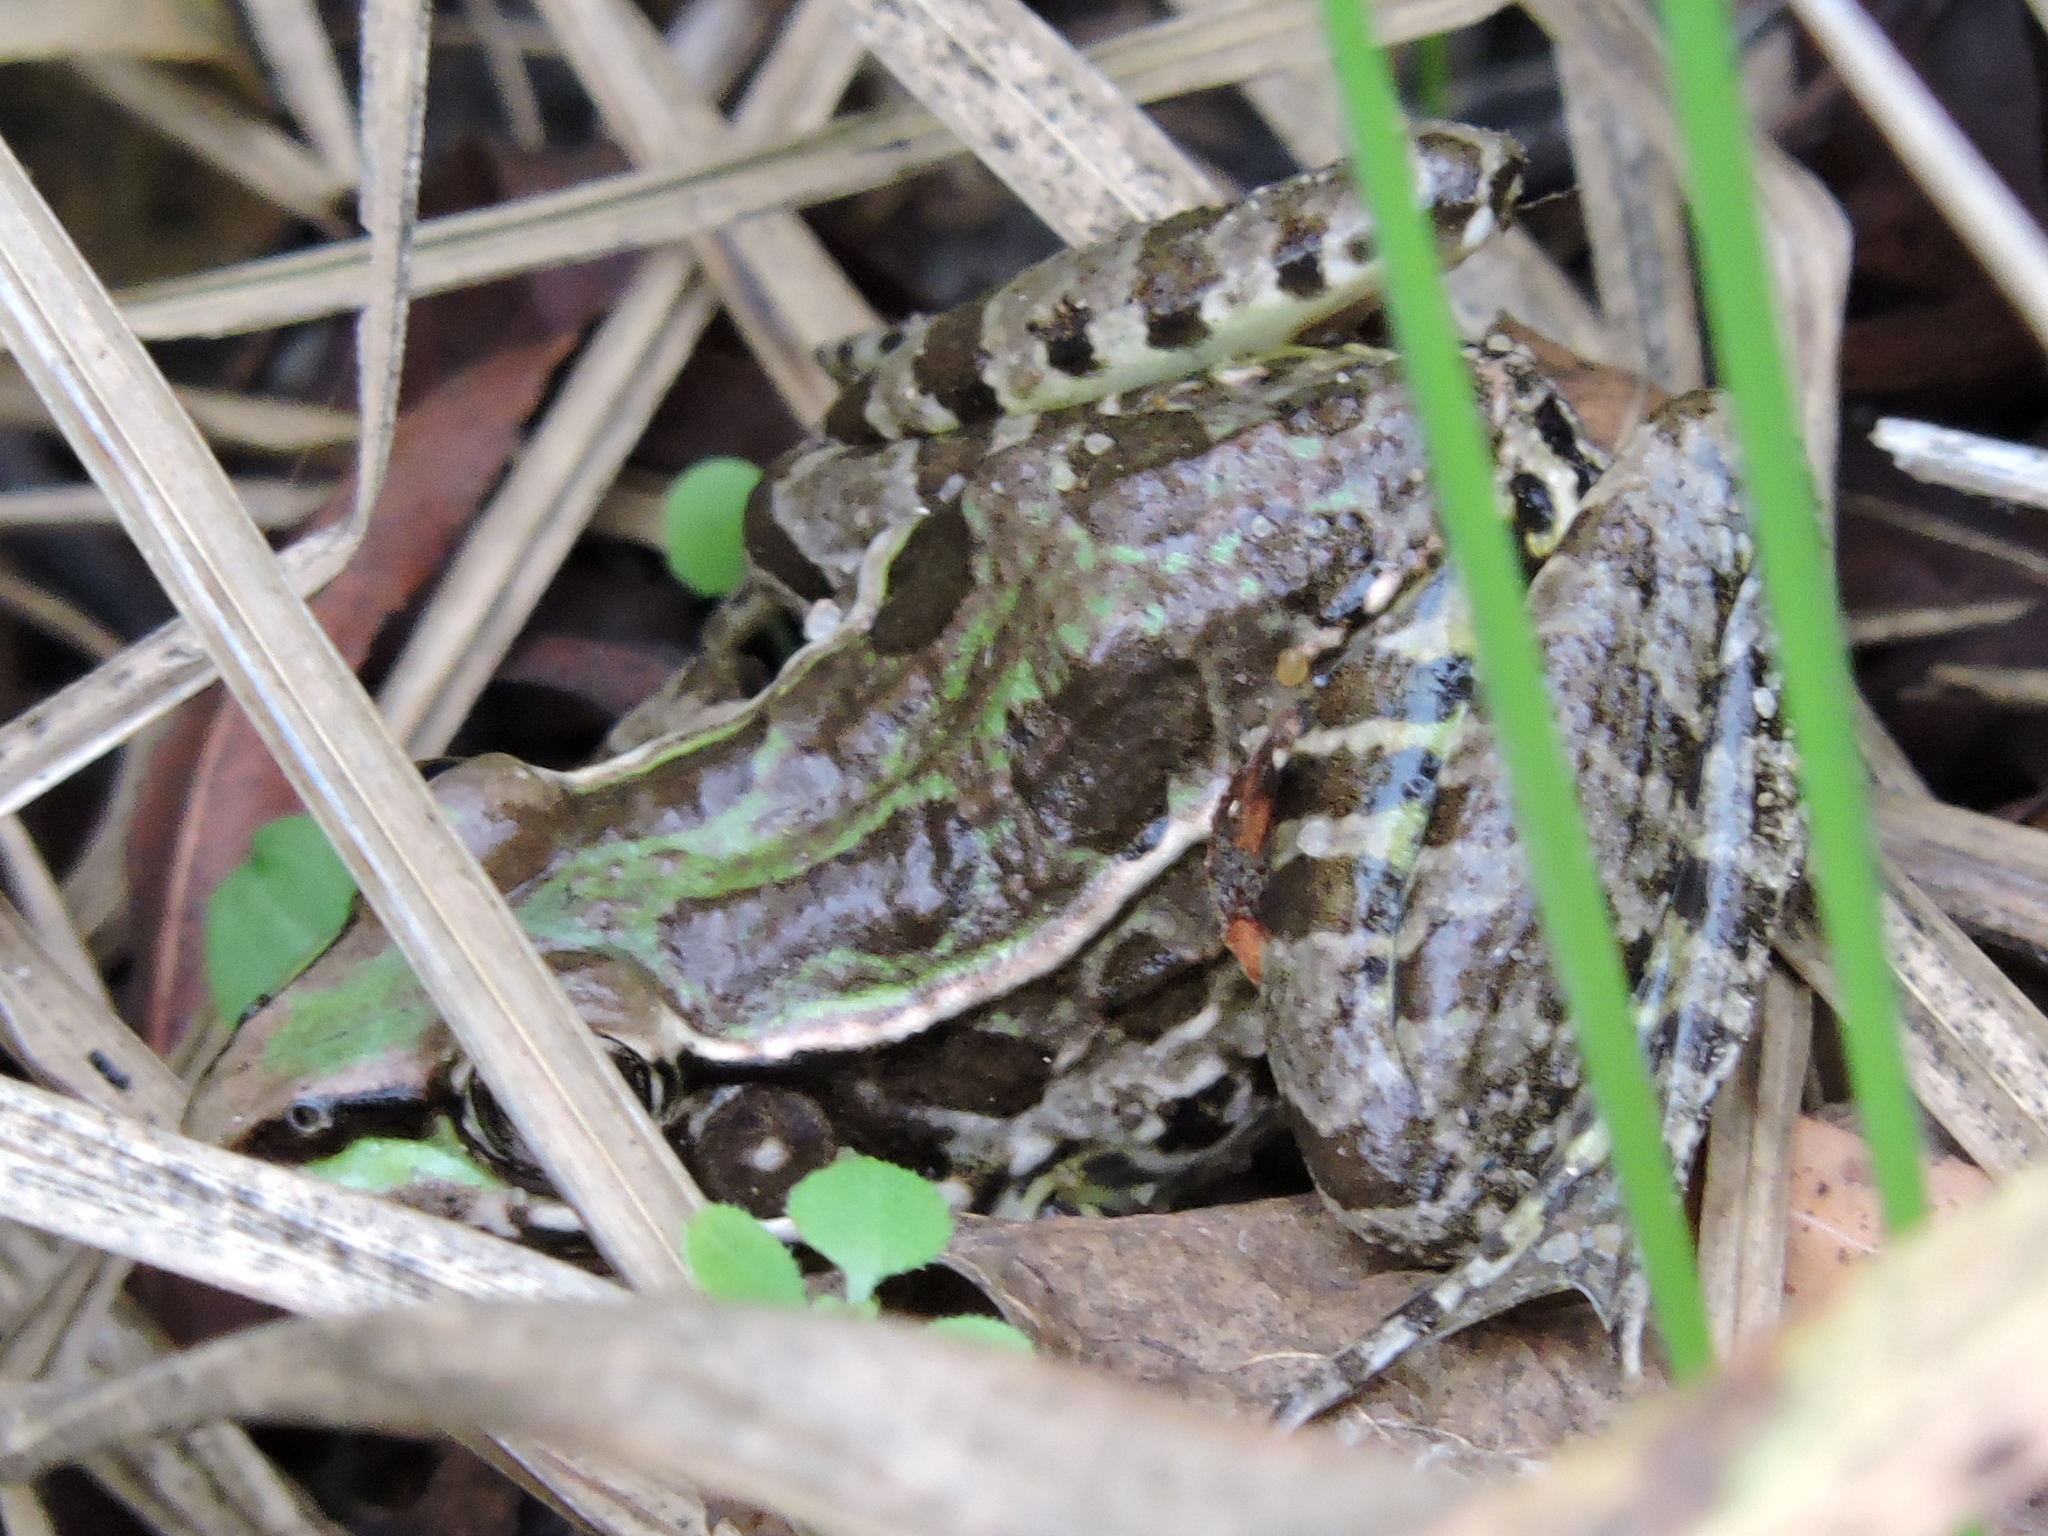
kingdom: Animalia
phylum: Chordata
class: Amphibia
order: Anura
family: Ranidae
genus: Lithobates
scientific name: Lithobates berlandieri
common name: Rio grande leopard frog
